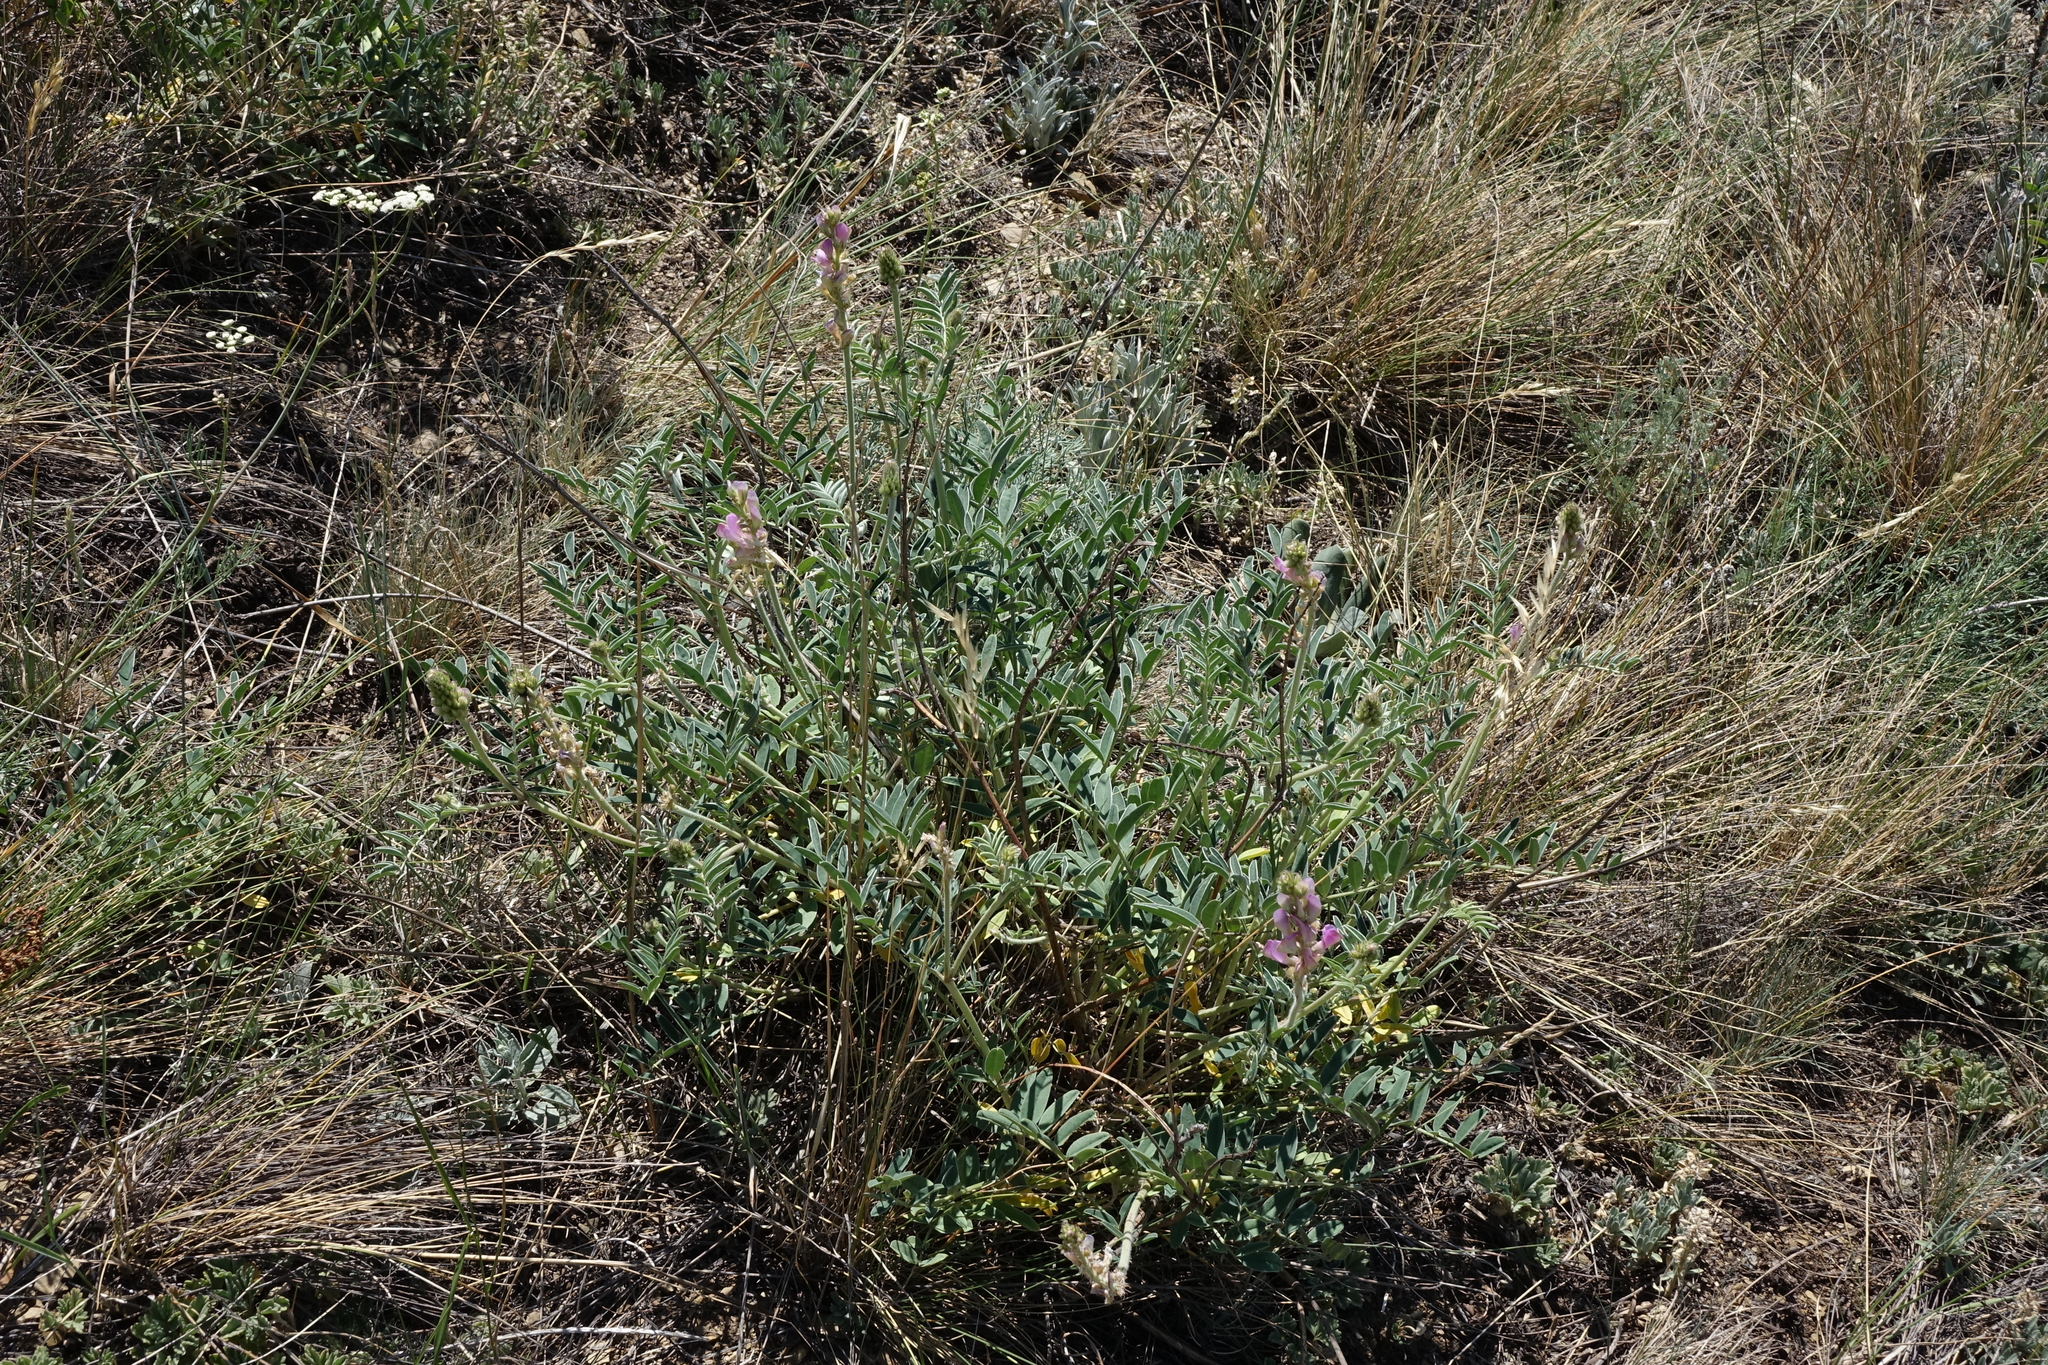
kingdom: Plantae
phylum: Tracheophyta
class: Magnoliopsida
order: Fabales
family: Fabaceae
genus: Hedysarum
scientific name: Hedysarum gmelinii
